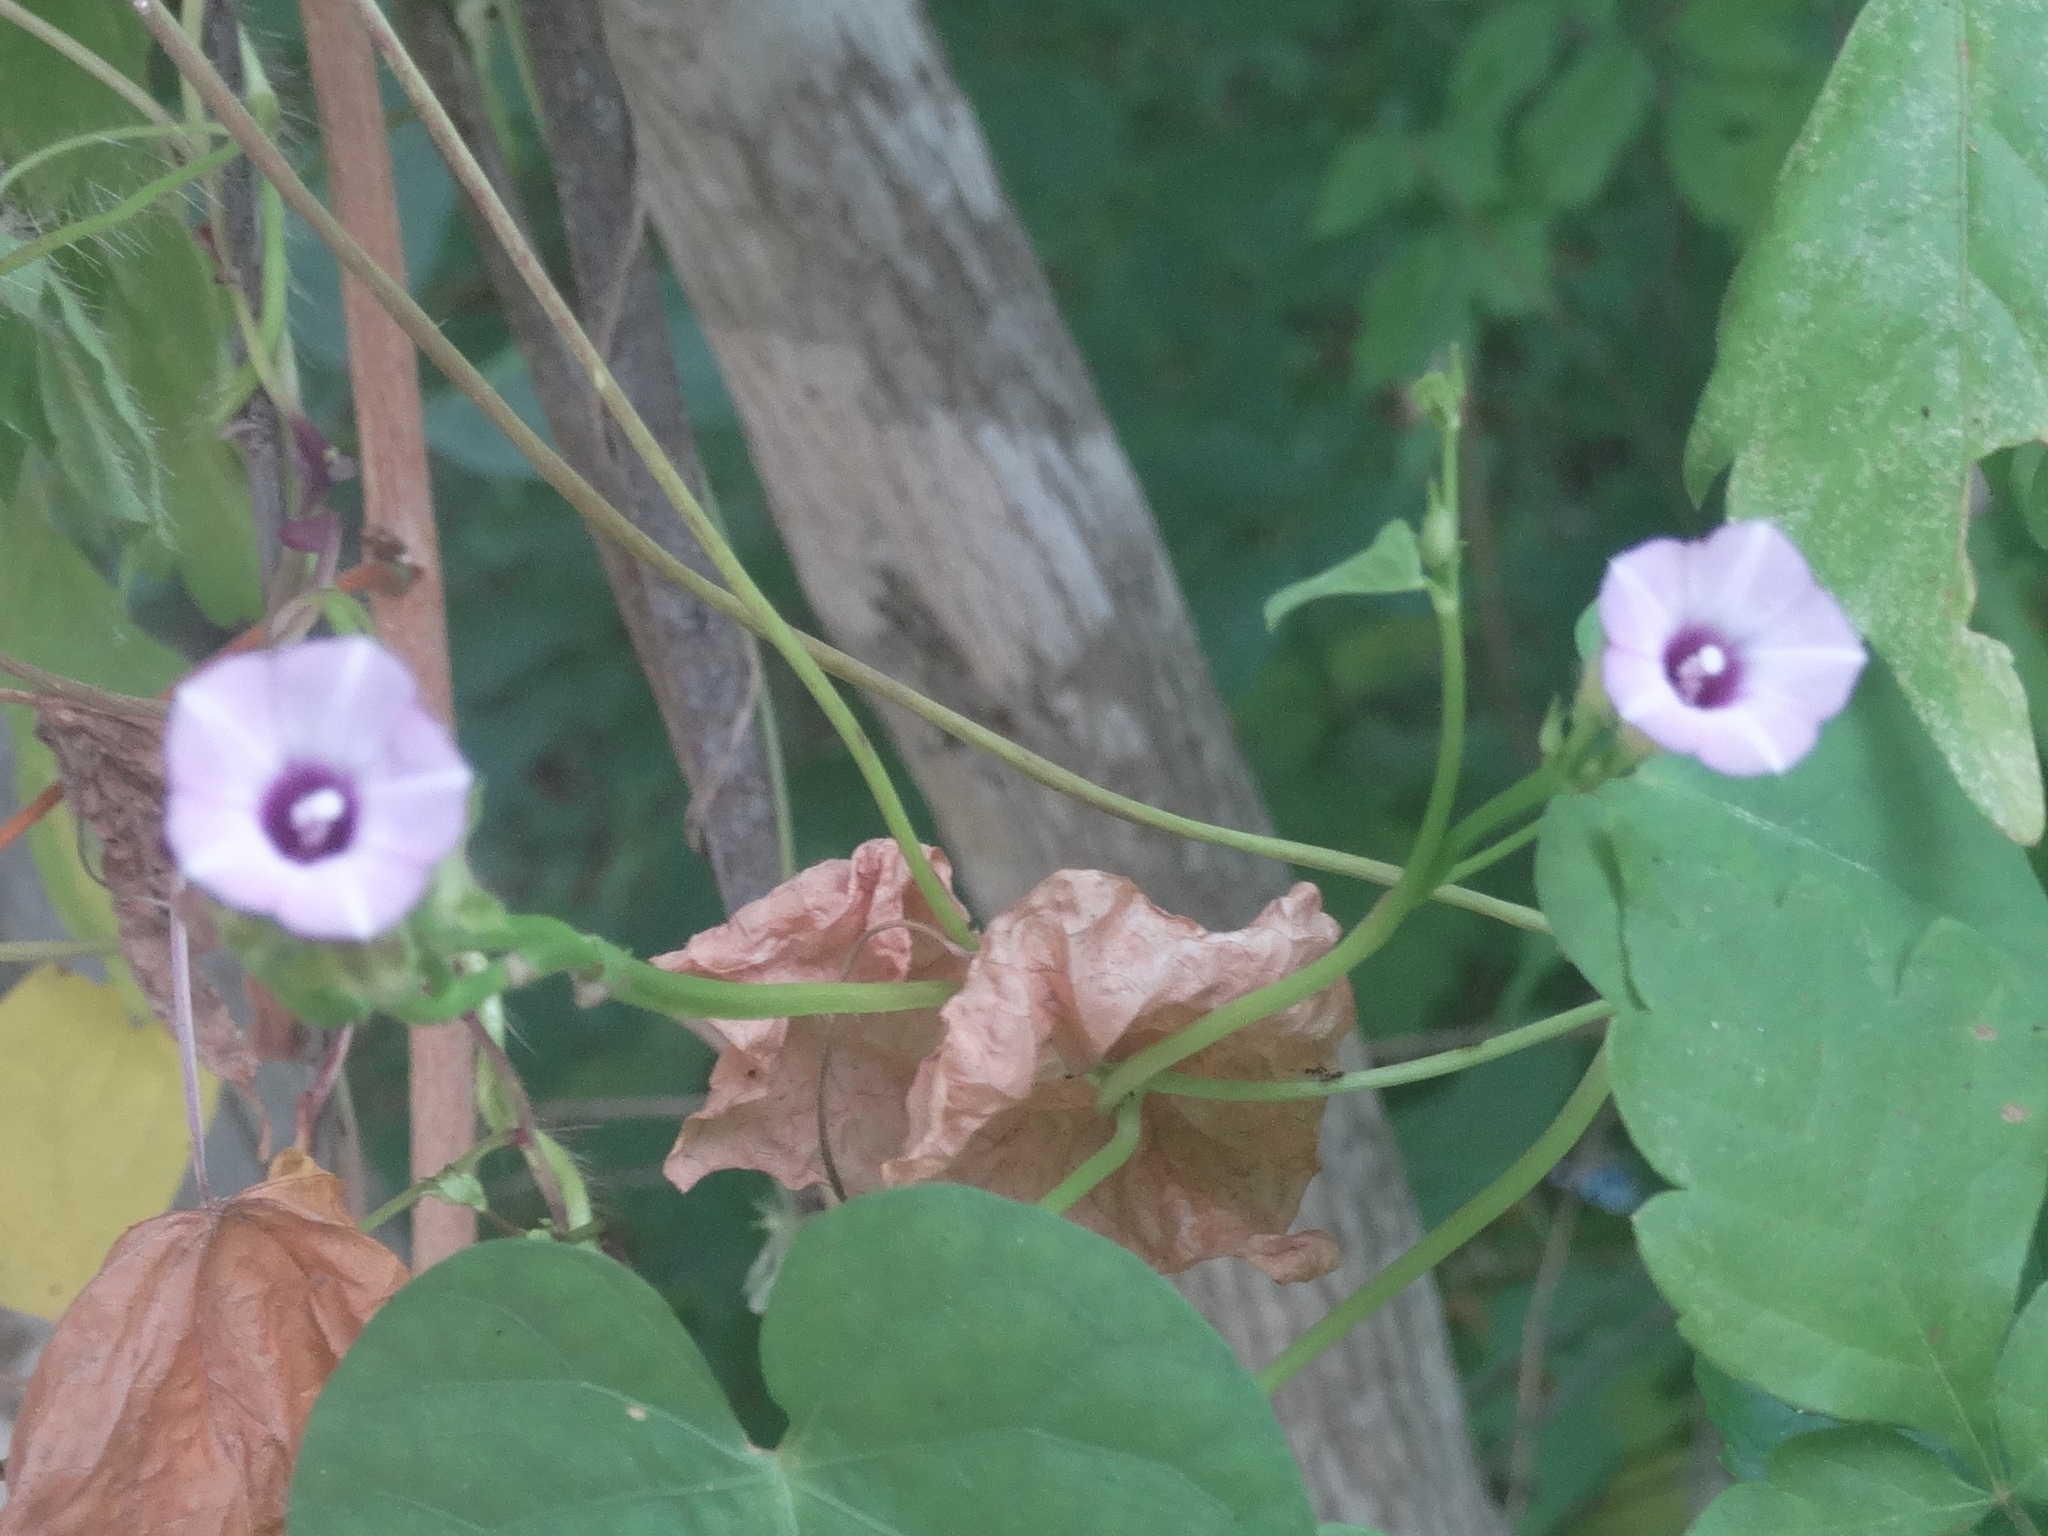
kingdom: Plantae
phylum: Tracheophyta
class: Magnoliopsida
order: Solanales
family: Convolvulaceae
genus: Ipomoea
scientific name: Ipomoea triloba
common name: Little-bell
